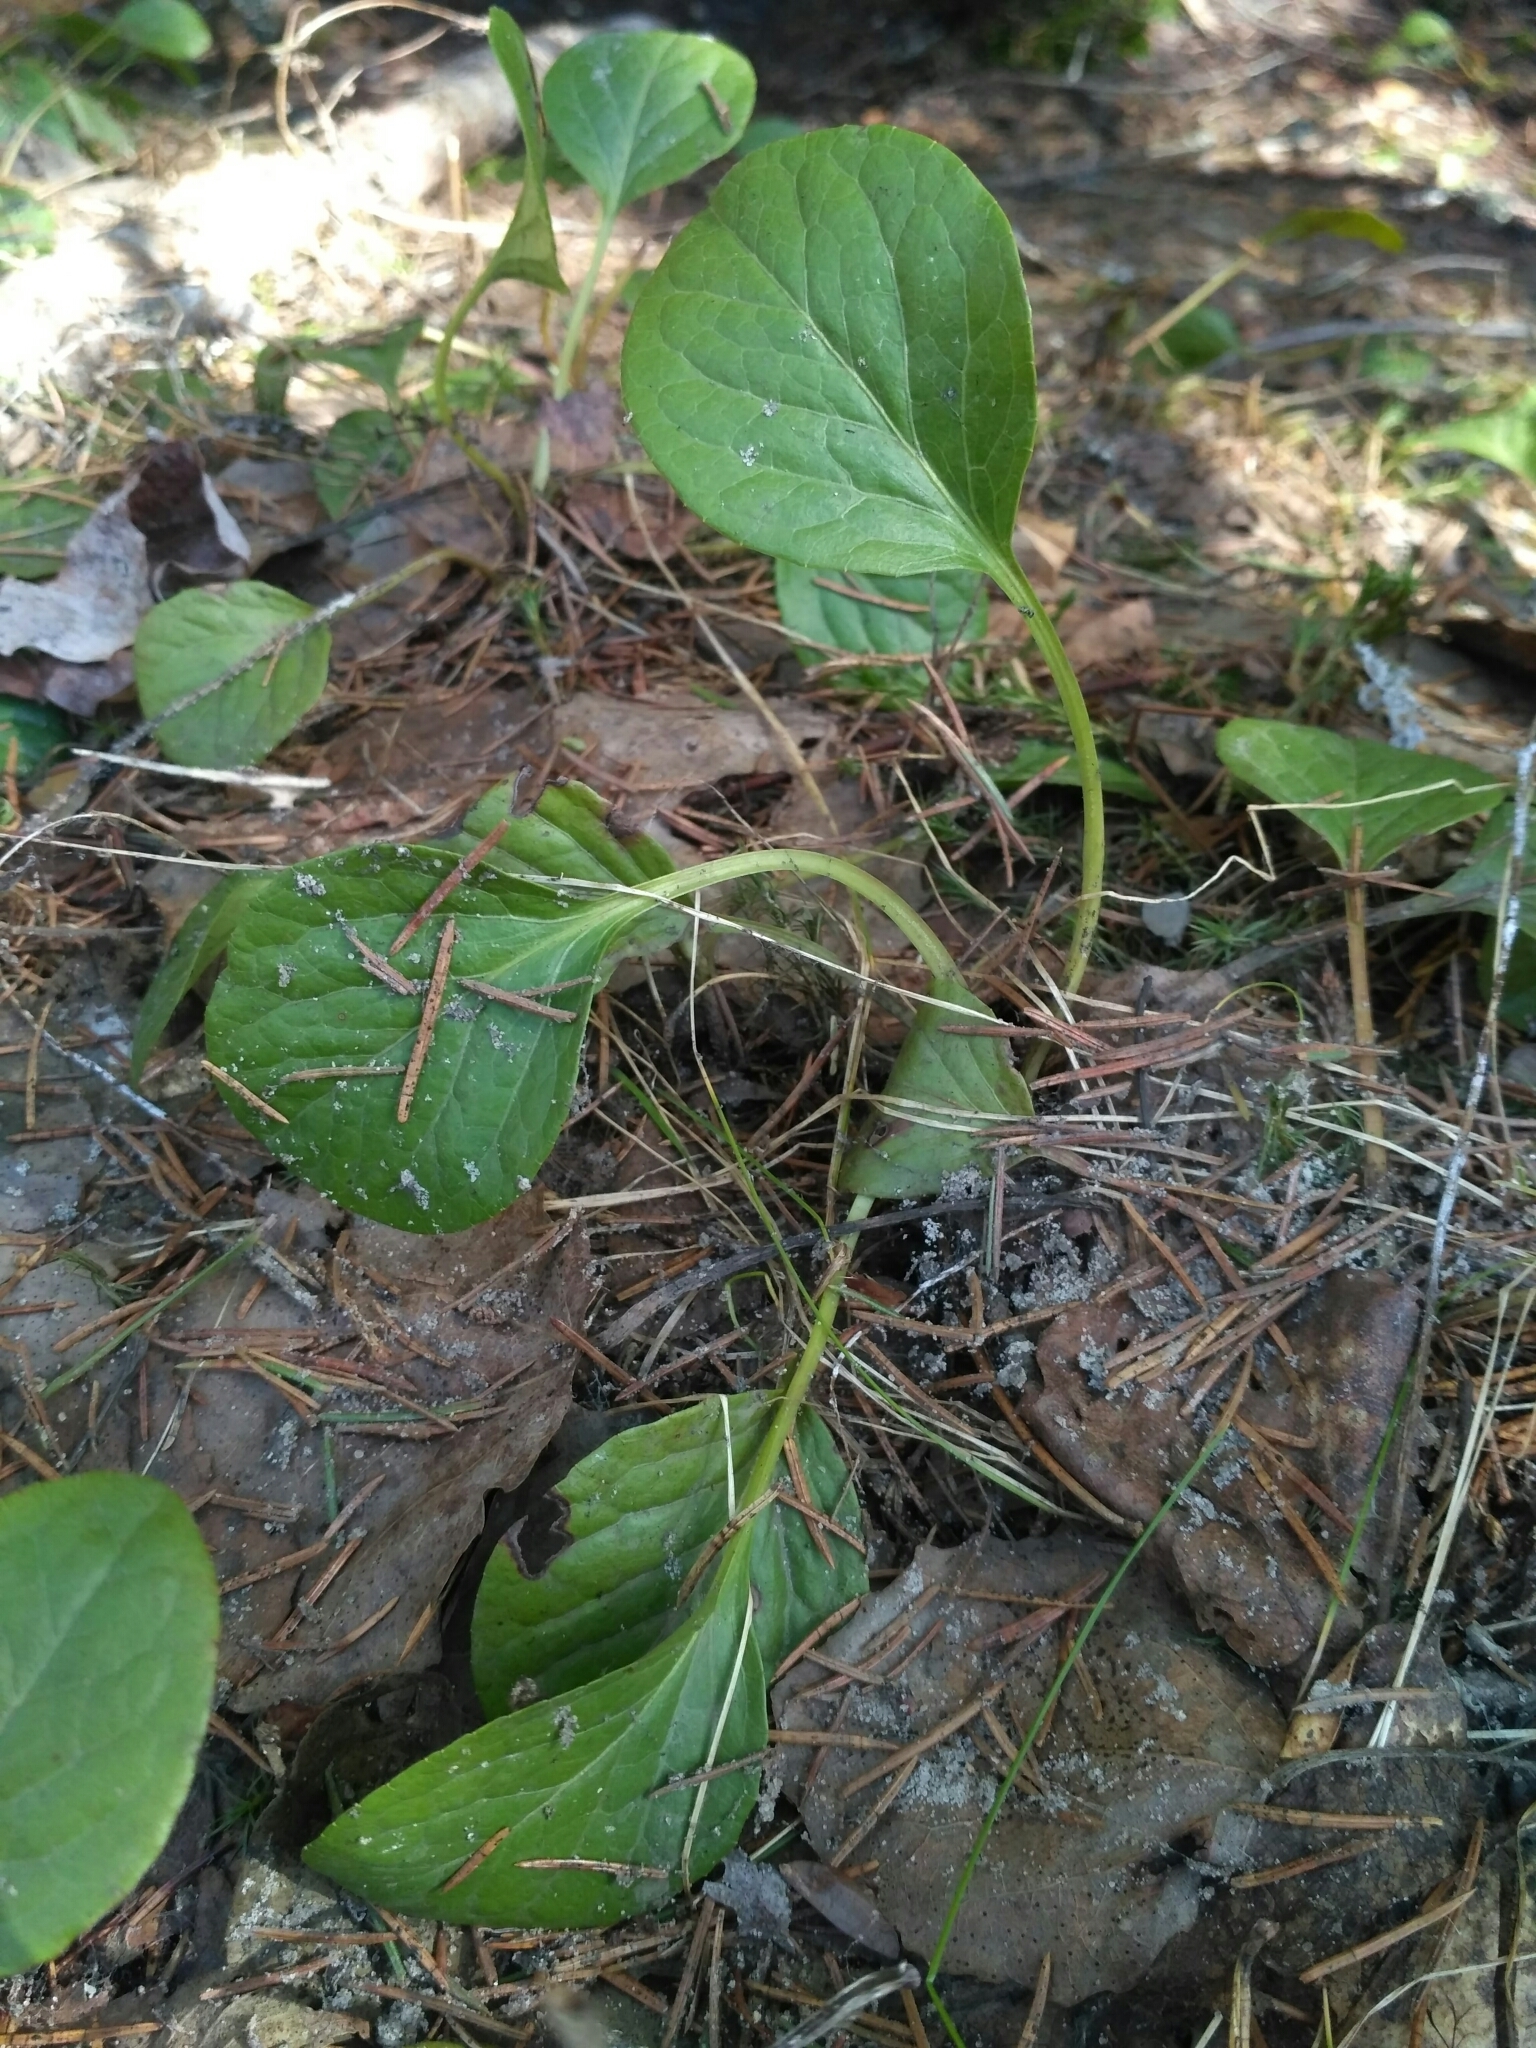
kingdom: Plantae
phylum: Tracheophyta
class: Magnoliopsida
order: Ericales
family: Ericaceae
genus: Pyrola
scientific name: Pyrola
